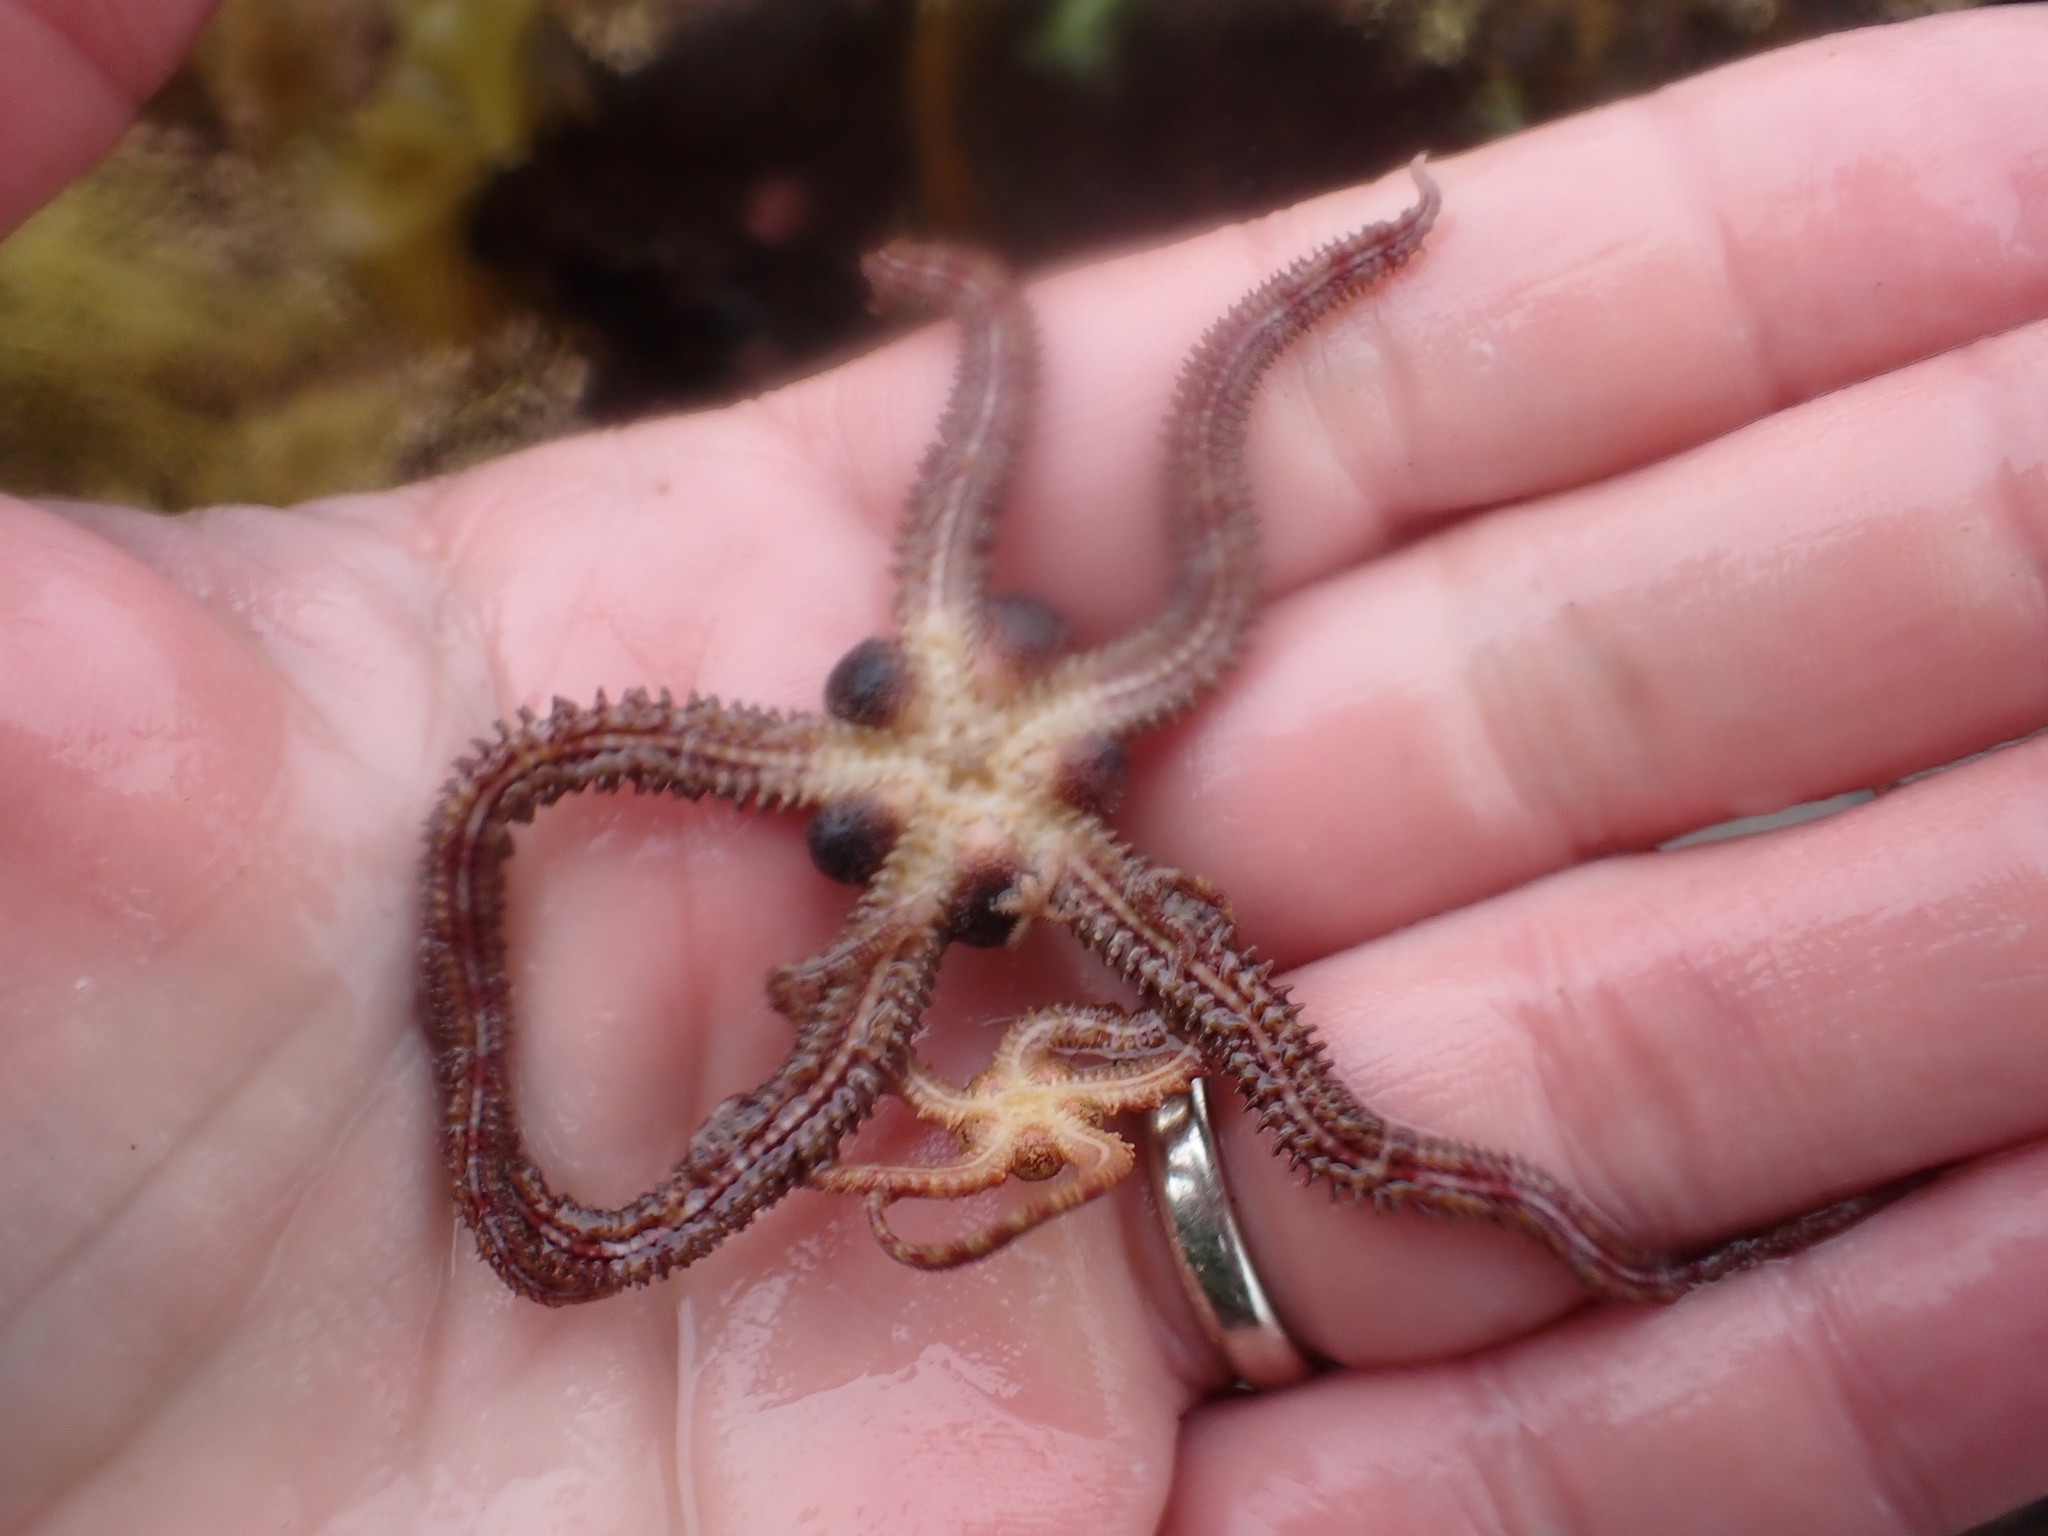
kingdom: Animalia
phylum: Echinodermata
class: Ophiuroidea
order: Amphilepidida
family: Ophiopholidae
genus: Ophiopholis
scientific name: Ophiopholis kennerlyi
